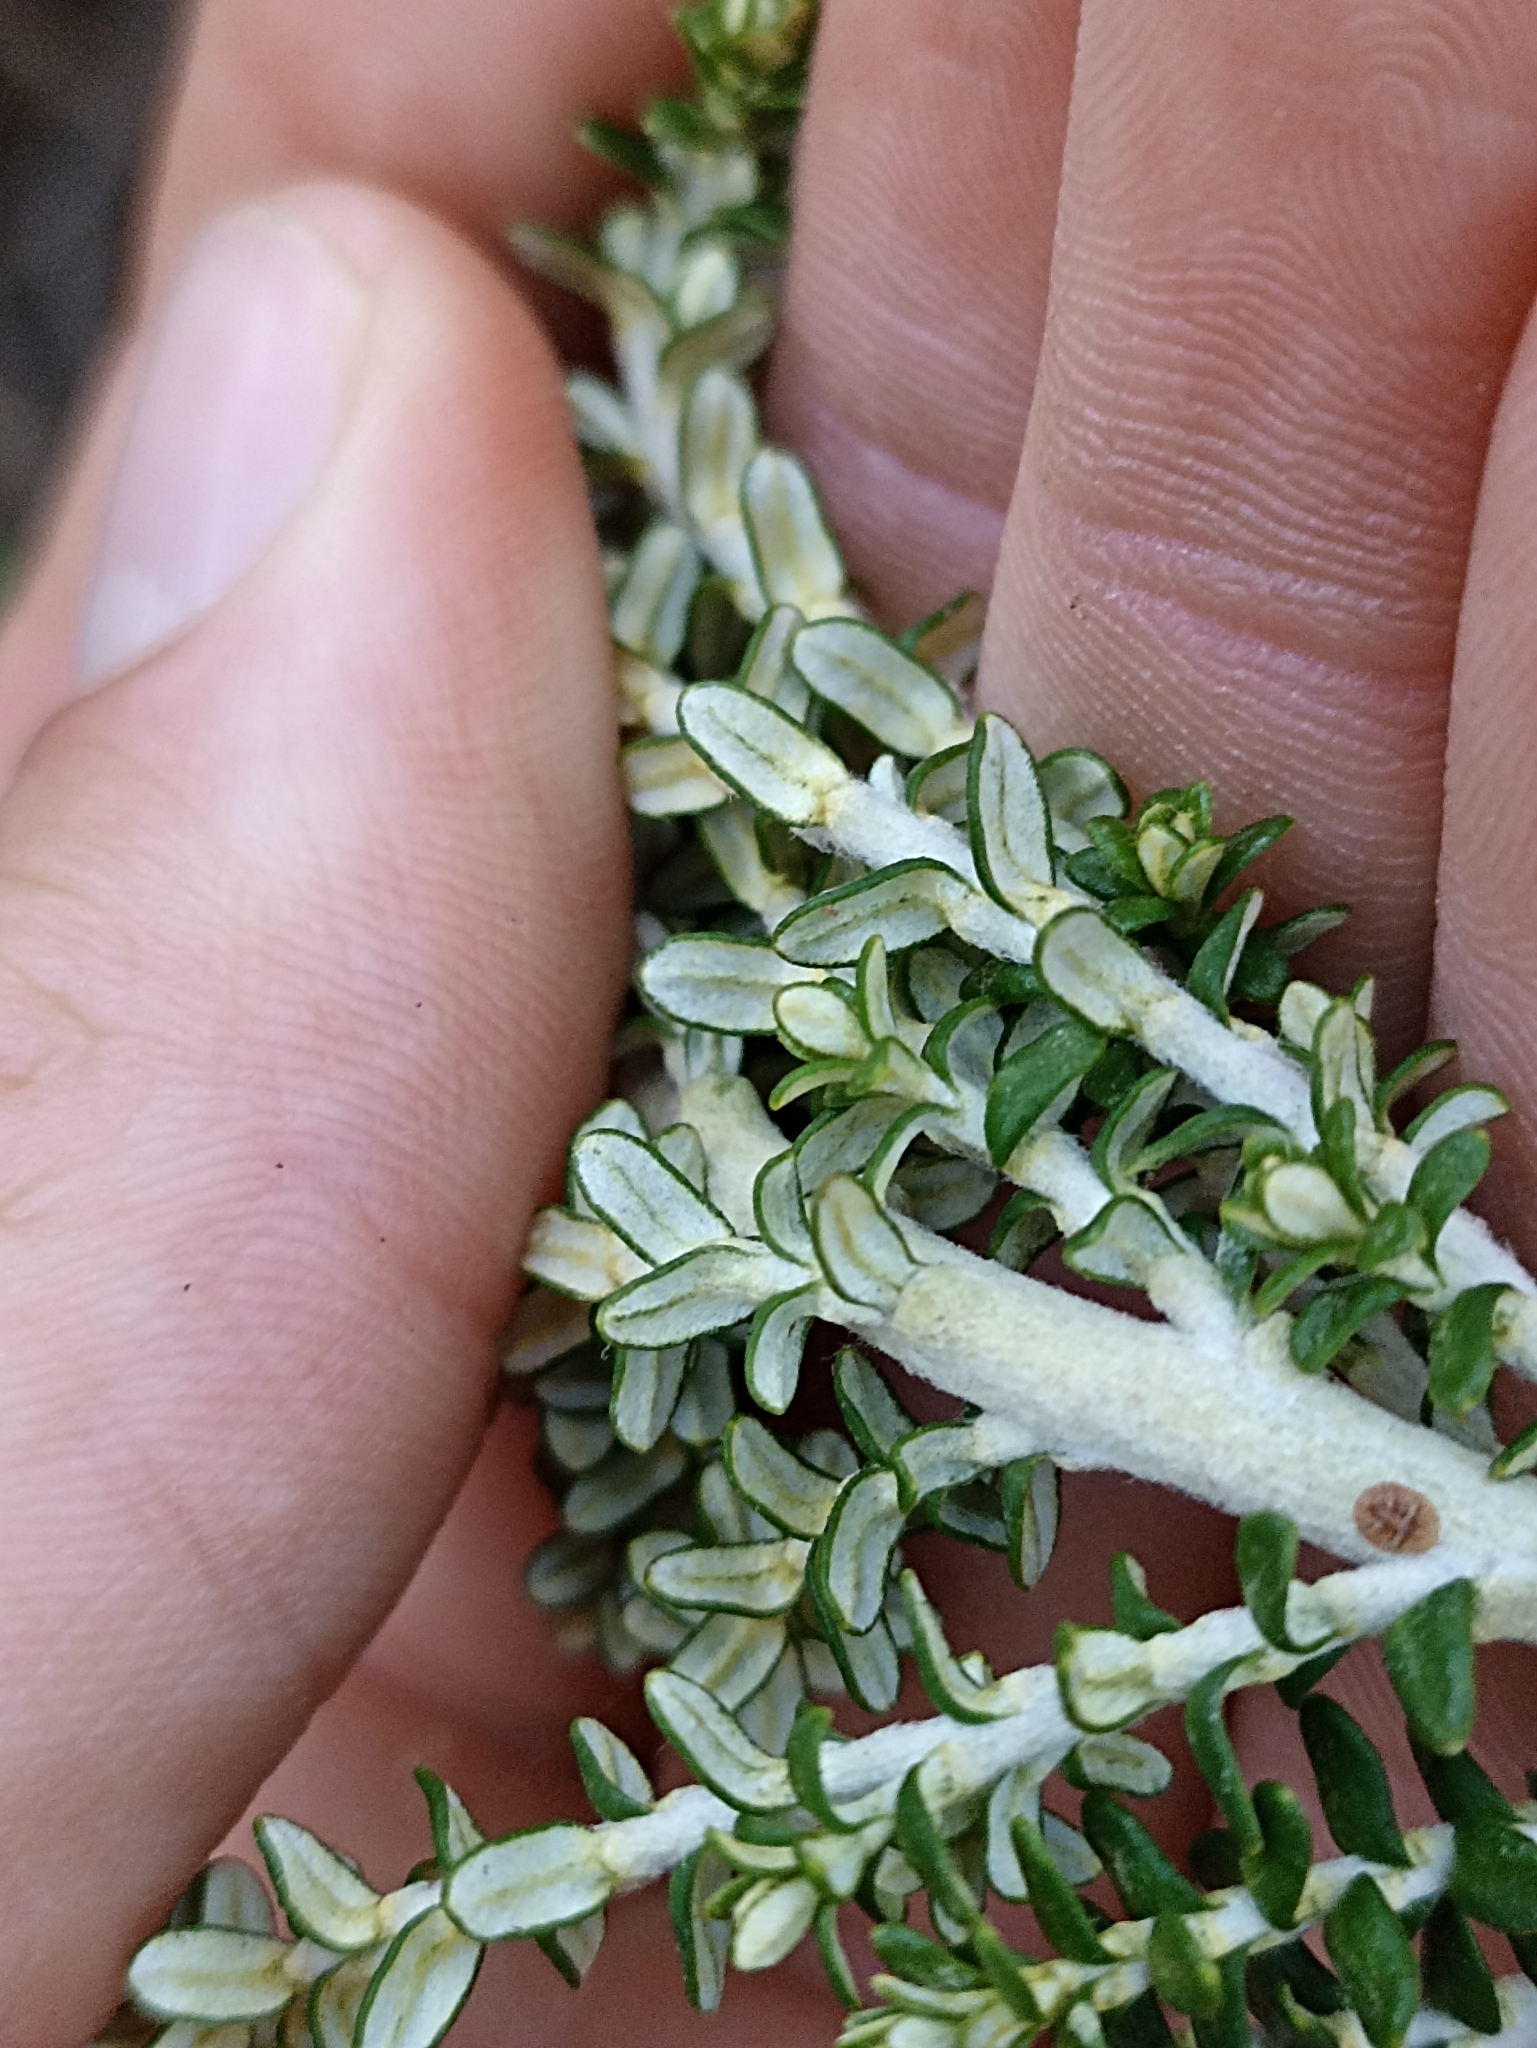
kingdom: Plantae
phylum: Tracheophyta
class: Magnoliopsida
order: Asterales
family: Asteraceae
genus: Ozothamnus
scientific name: Ozothamnus leptophyllus
